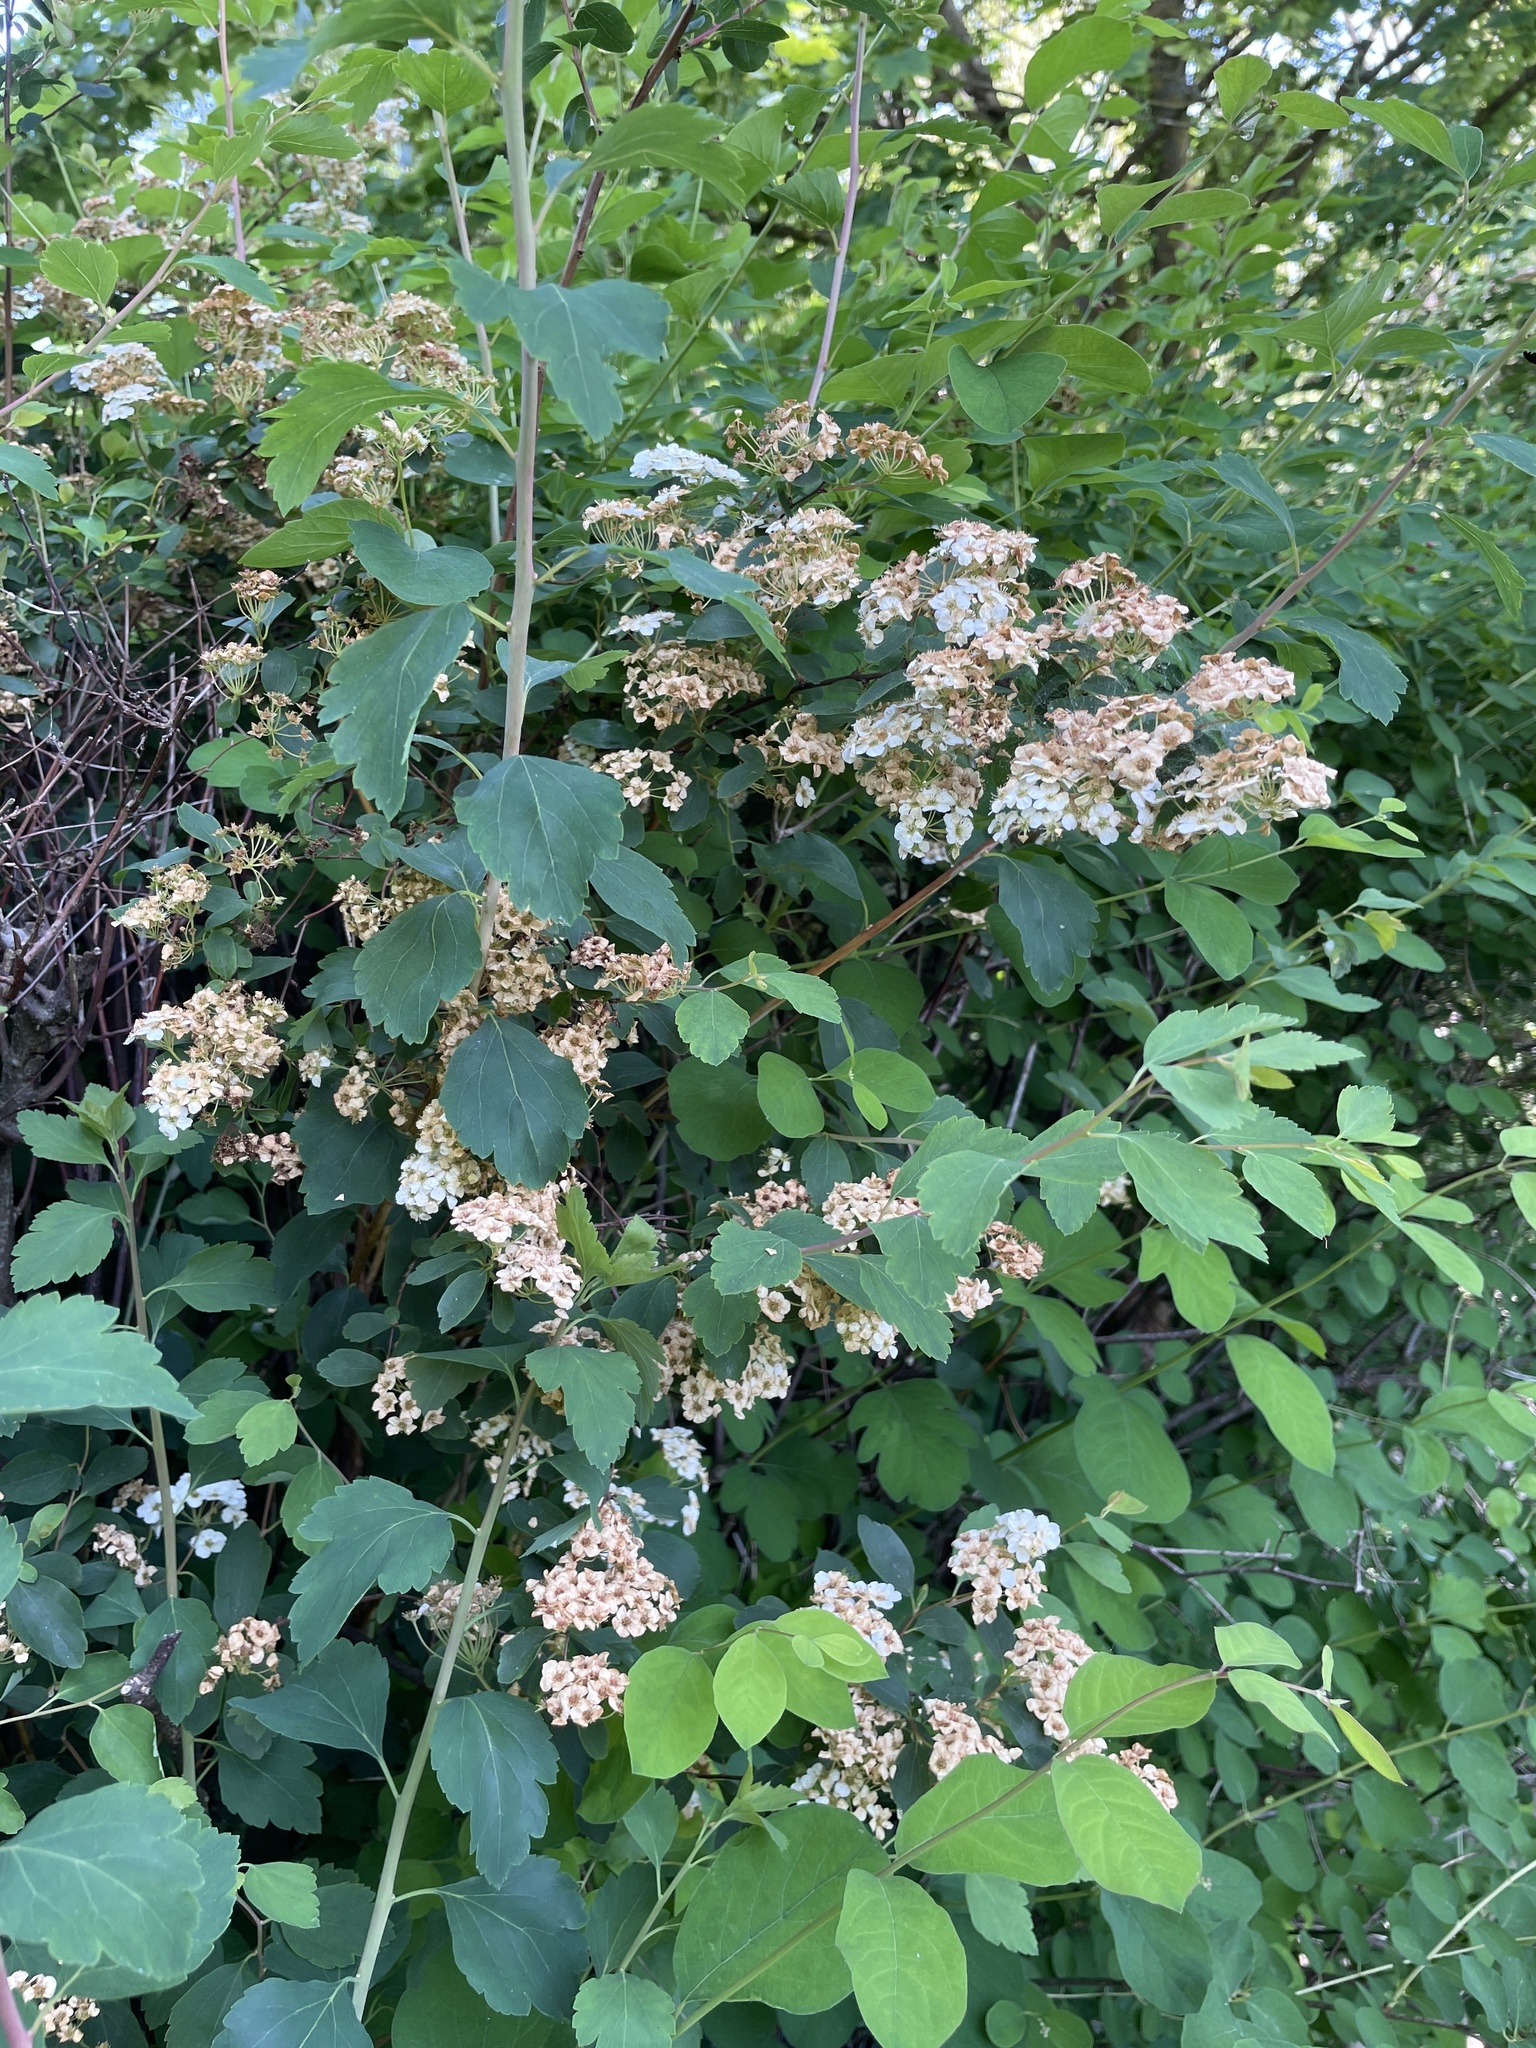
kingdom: Plantae
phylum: Tracheophyta
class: Magnoliopsida
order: Dipsacales
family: Caprifoliaceae
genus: Symphoricarpos
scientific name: Symphoricarpos albus
